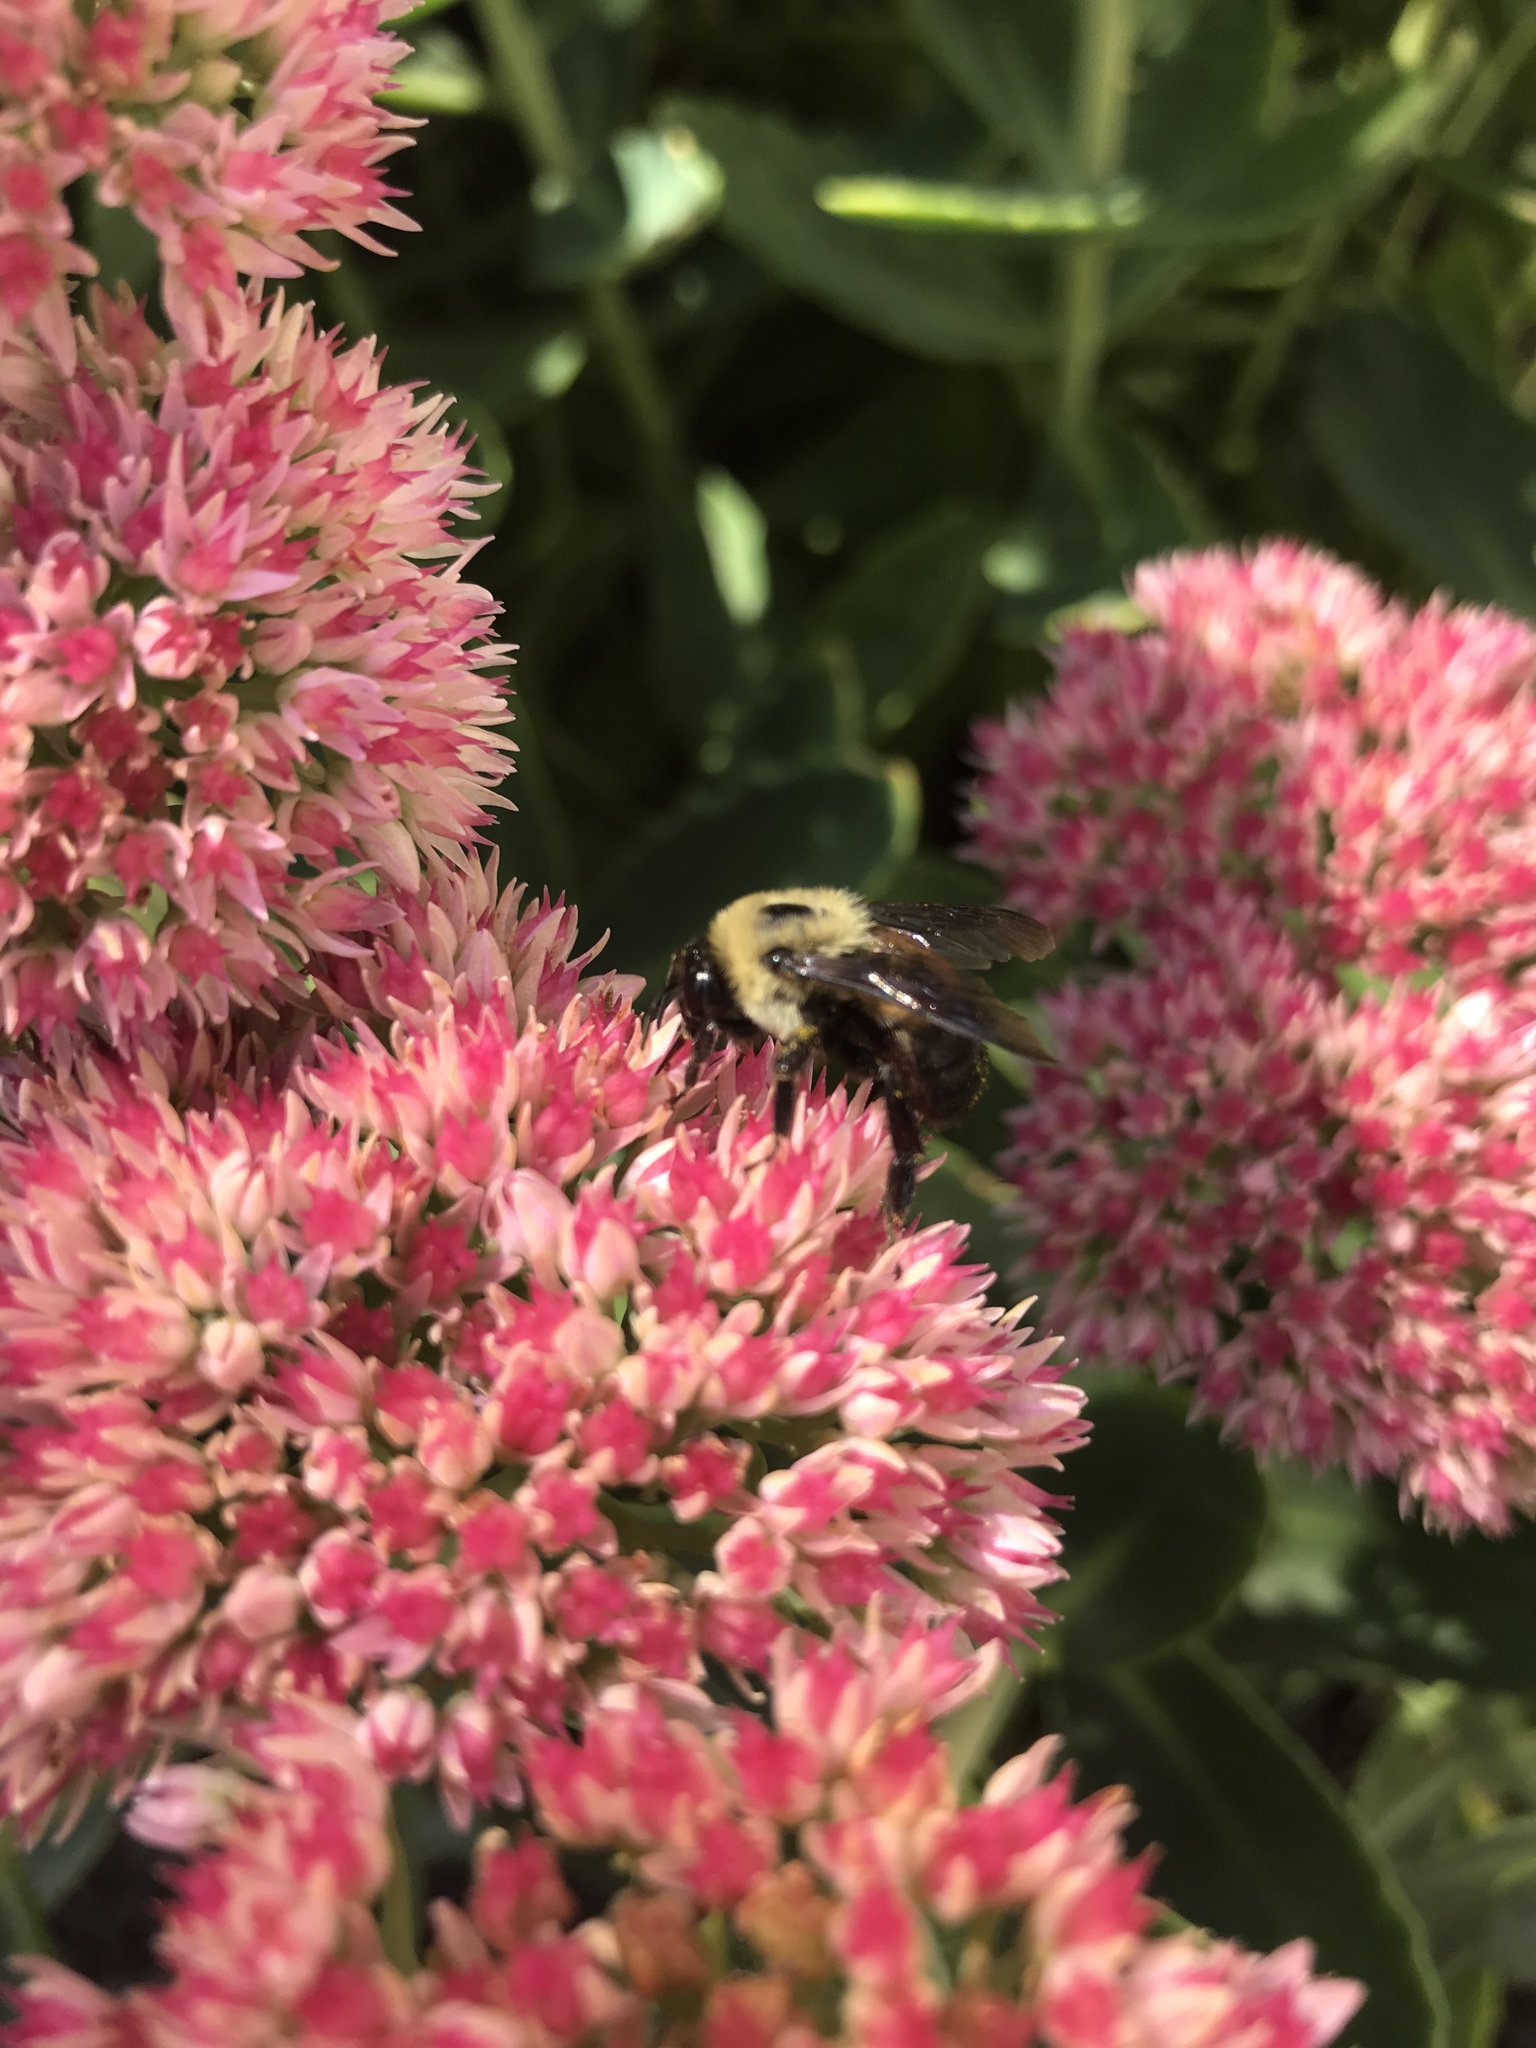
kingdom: Animalia
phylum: Arthropoda
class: Insecta
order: Hymenoptera
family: Apidae
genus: Bombus
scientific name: Bombus griseocollis
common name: Brown-belted bumble bee
